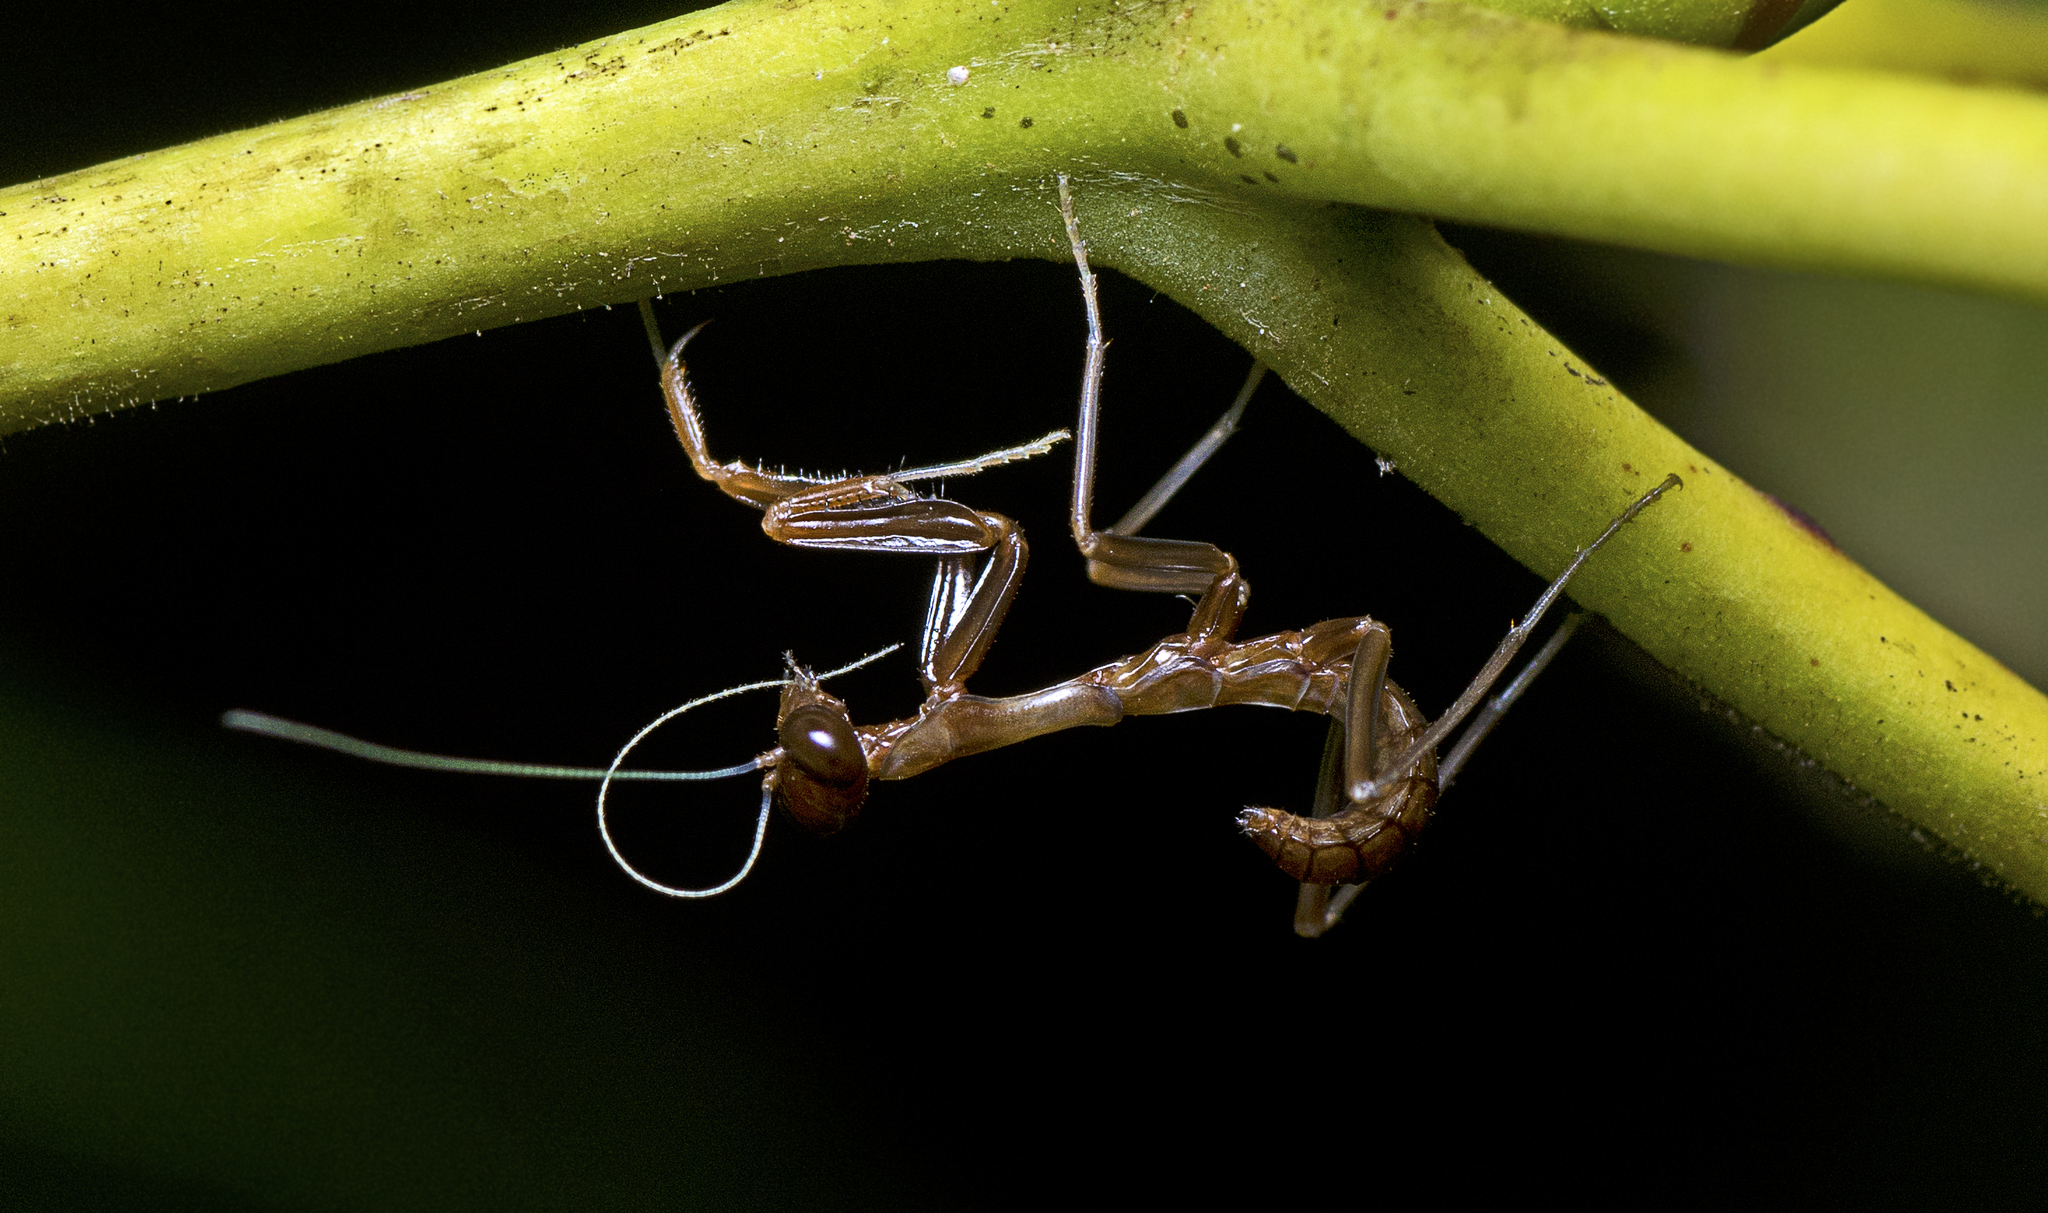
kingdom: Animalia
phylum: Arthropoda
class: Insecta
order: Mantodea
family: Mantidae
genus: Pseudomantis
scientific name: Pseudomantis albofimbriata
